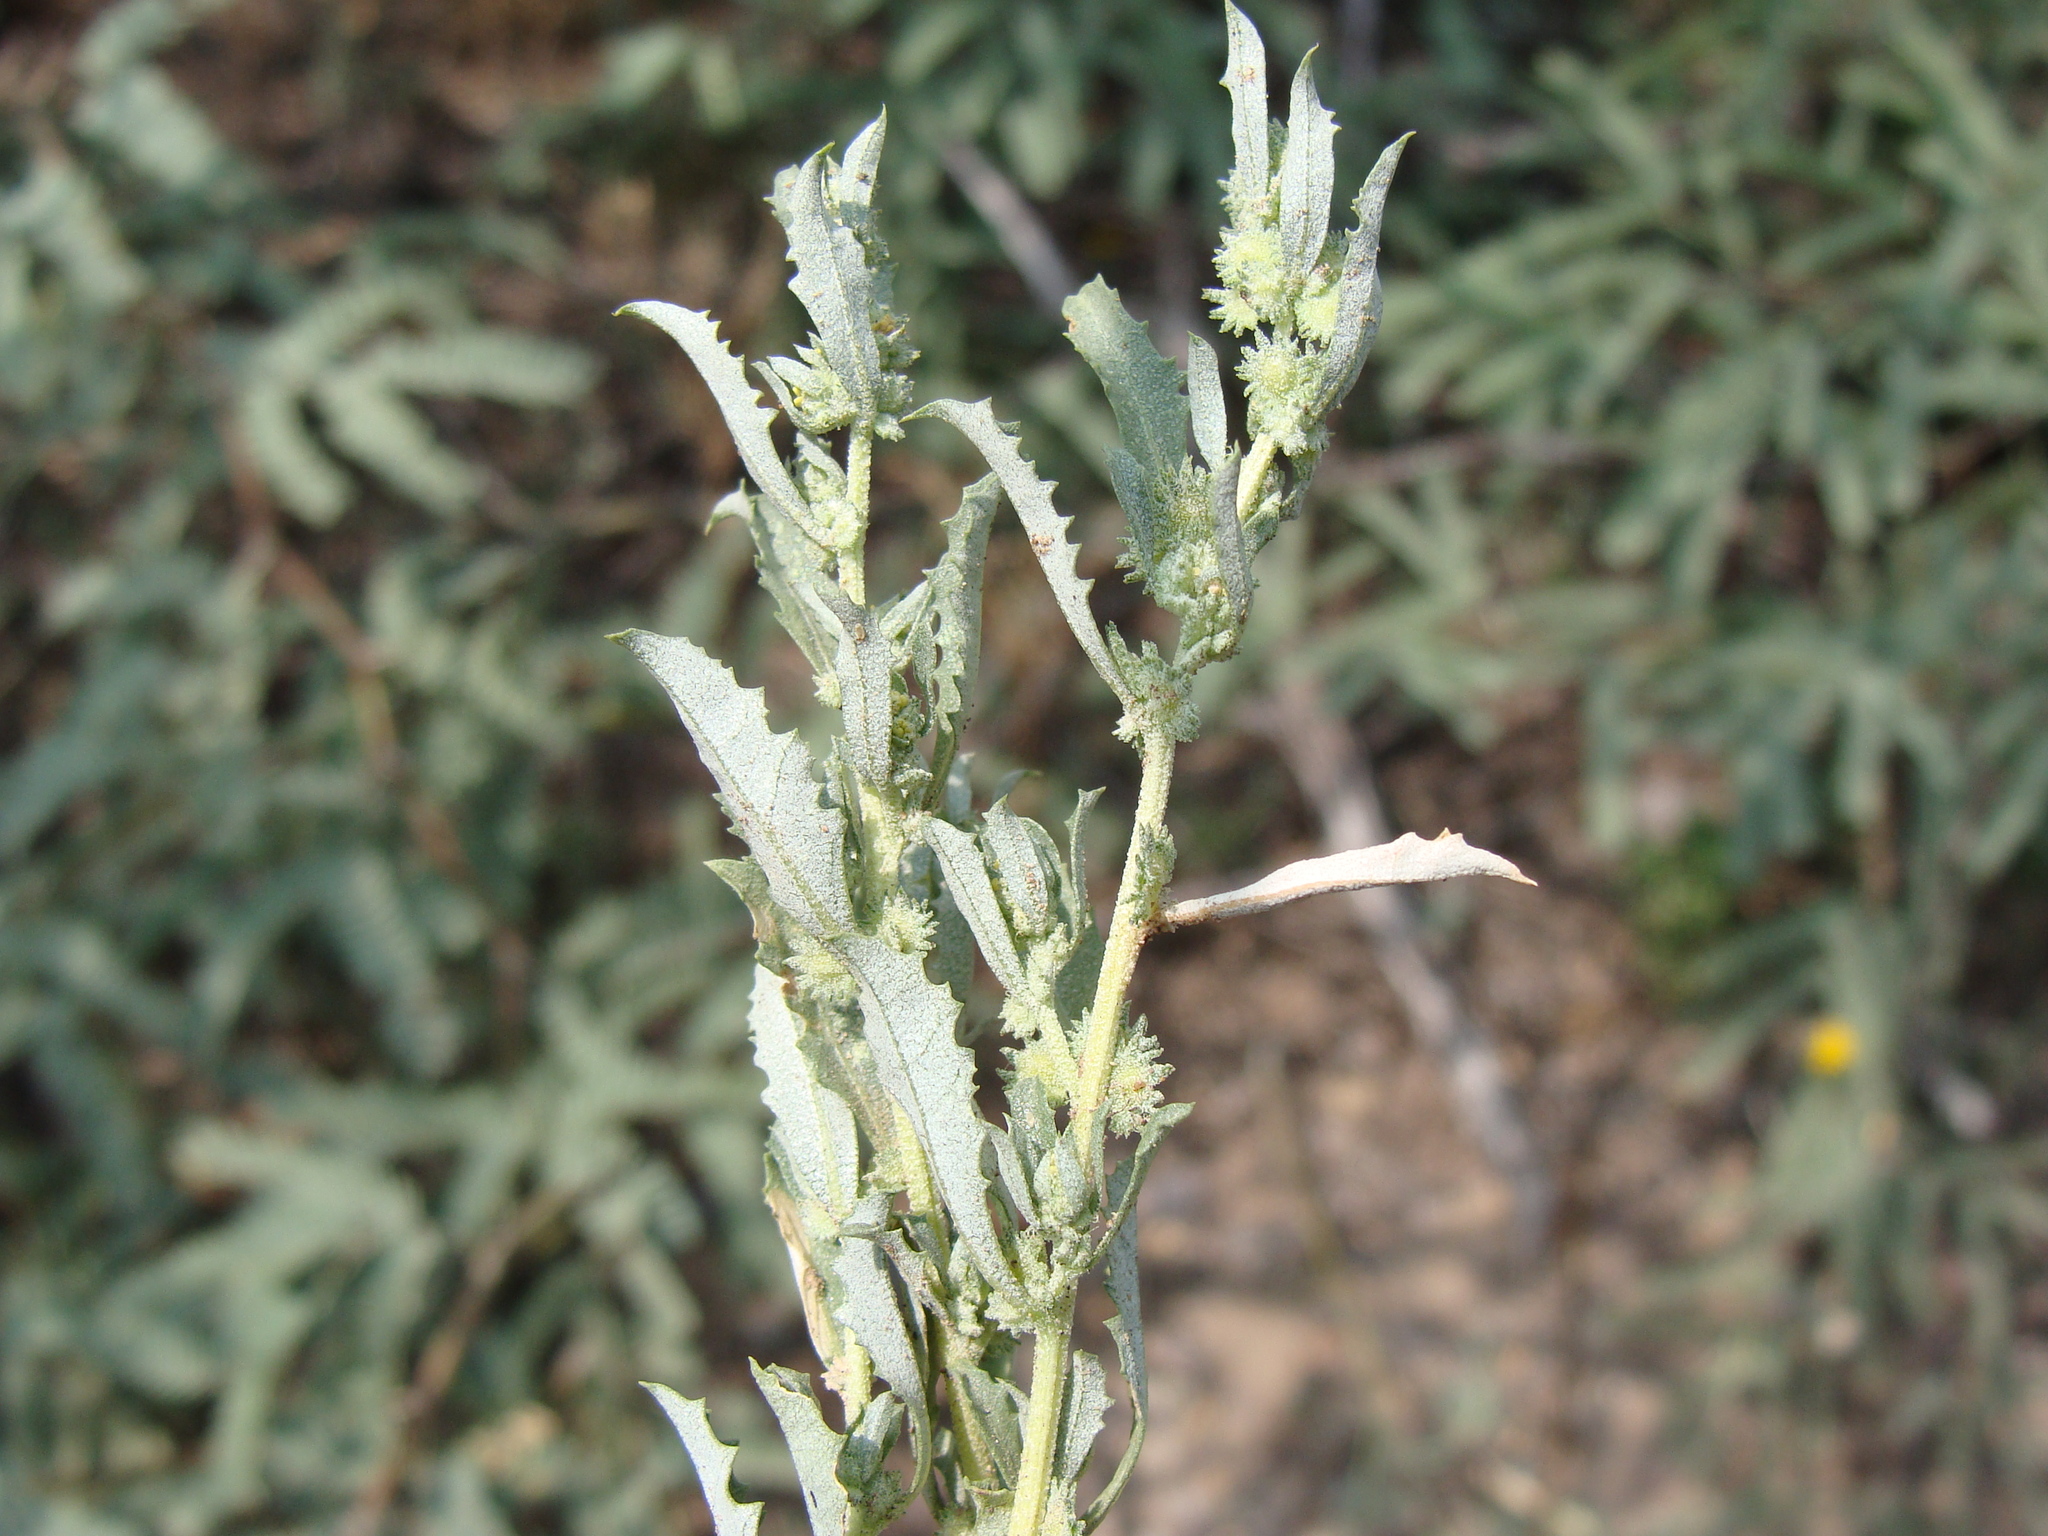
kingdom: Plantae
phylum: Tracheophyta
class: Magnoliopsida
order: Caryophyllales
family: Amaranthaceae
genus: Atriplex
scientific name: Atriplex elegans
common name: Wheelscale orach
